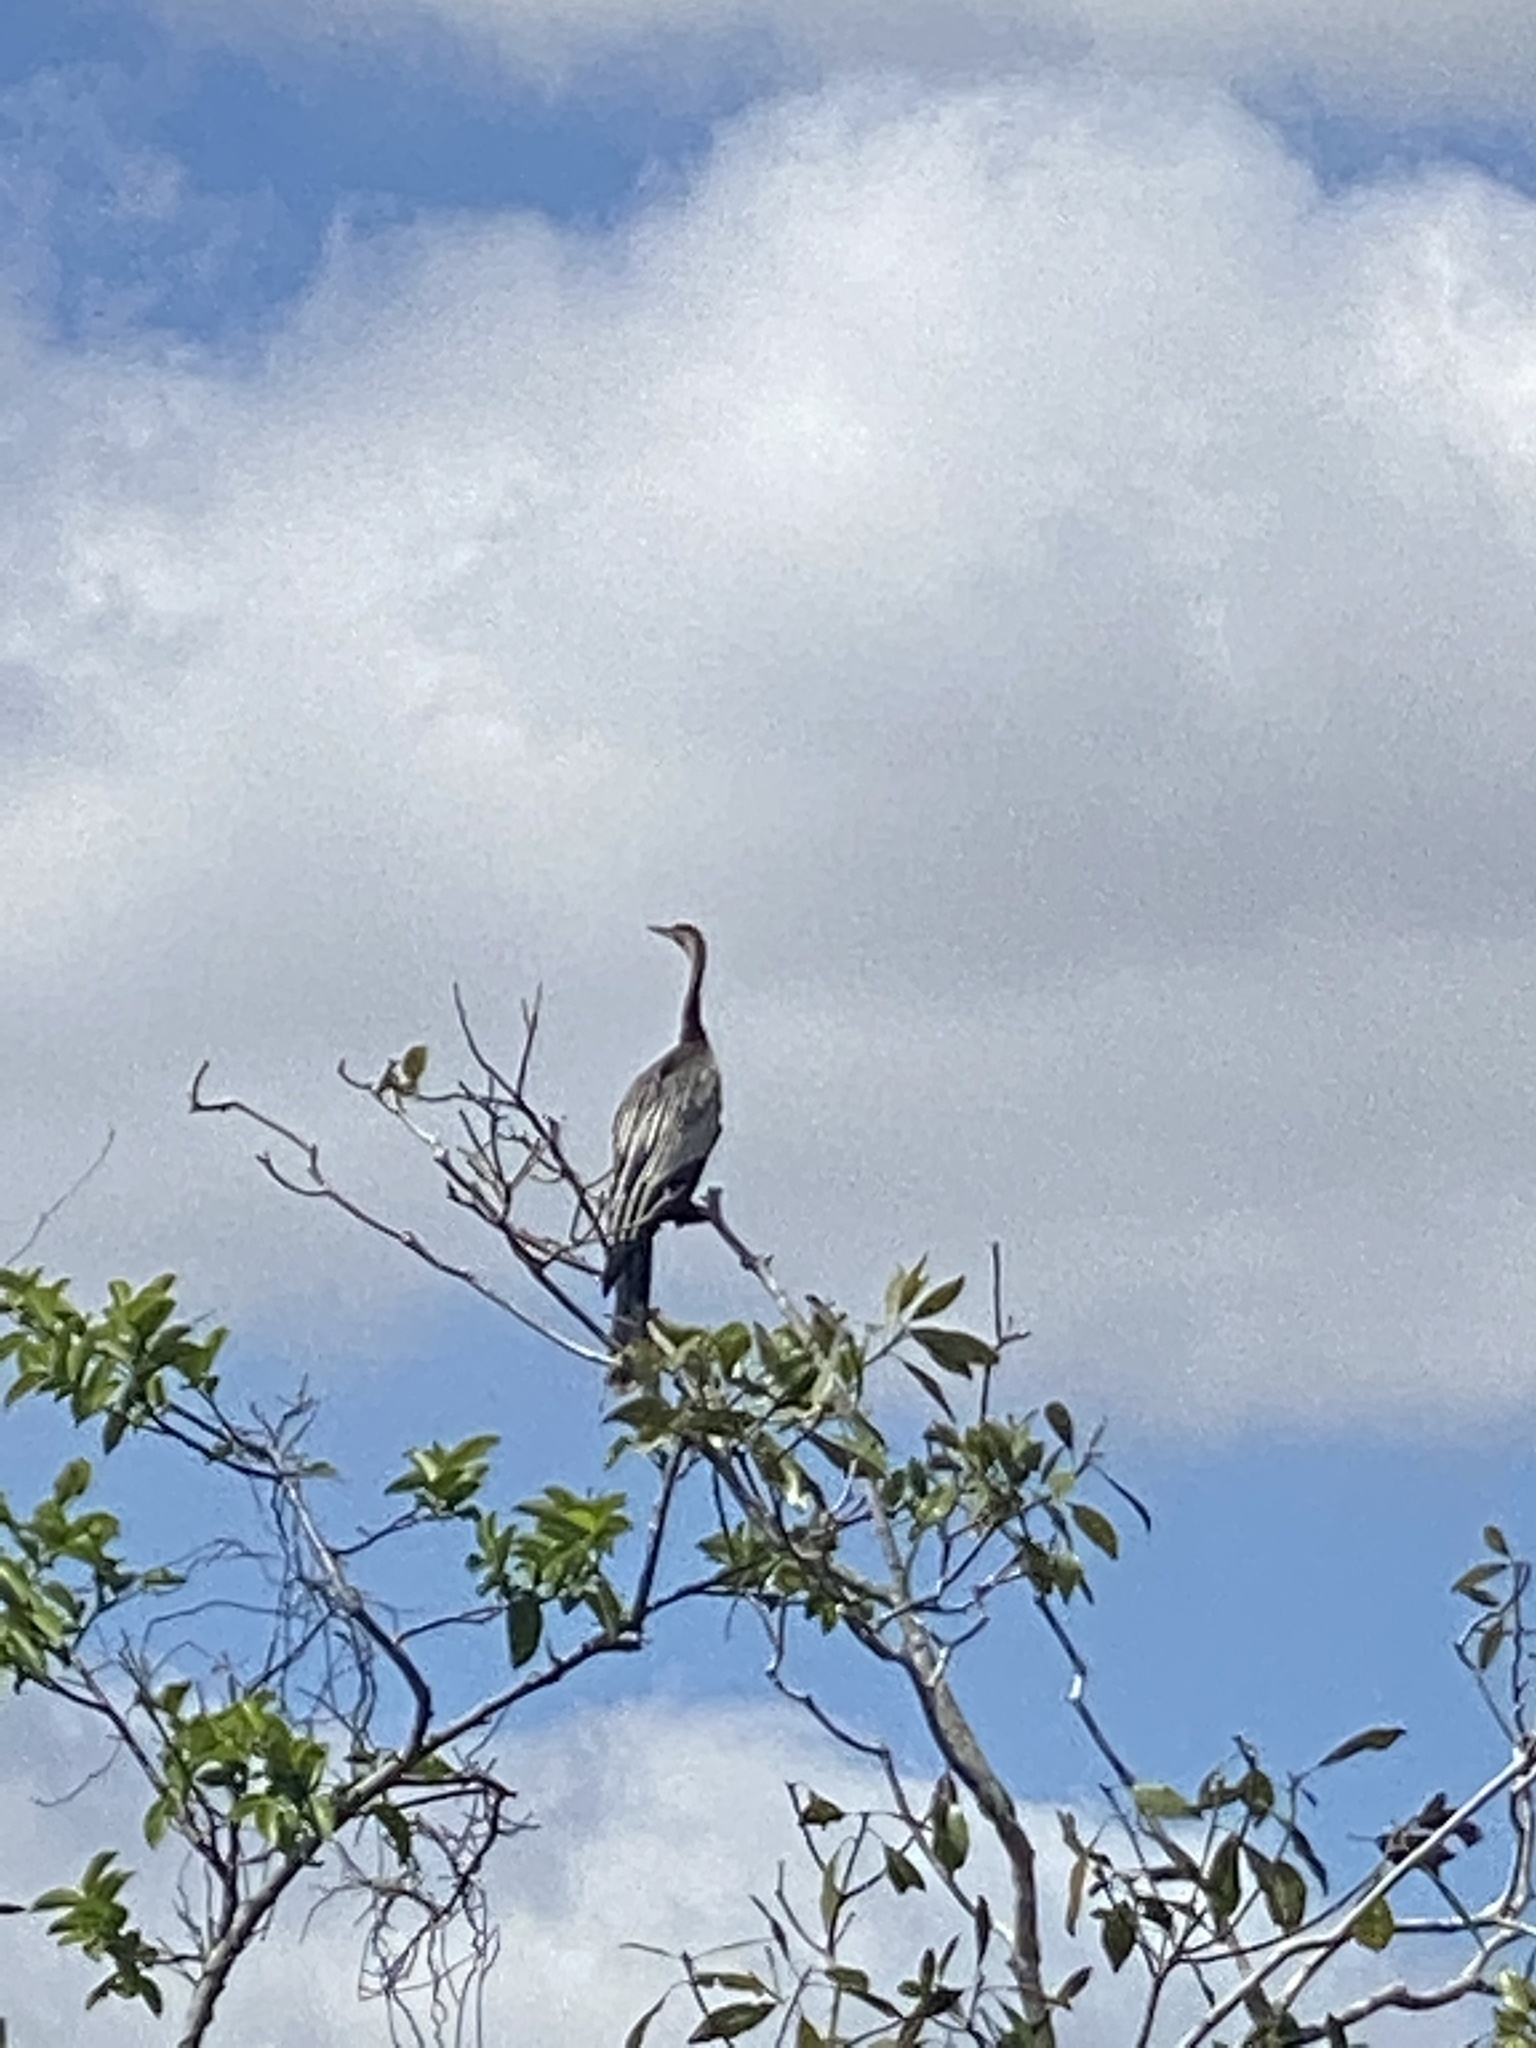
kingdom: Animalia
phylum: Chordata
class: Aves
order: Suliformes
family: Anhingidae
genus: Anhinga
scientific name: Anhinga anhinga
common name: Anhinga
